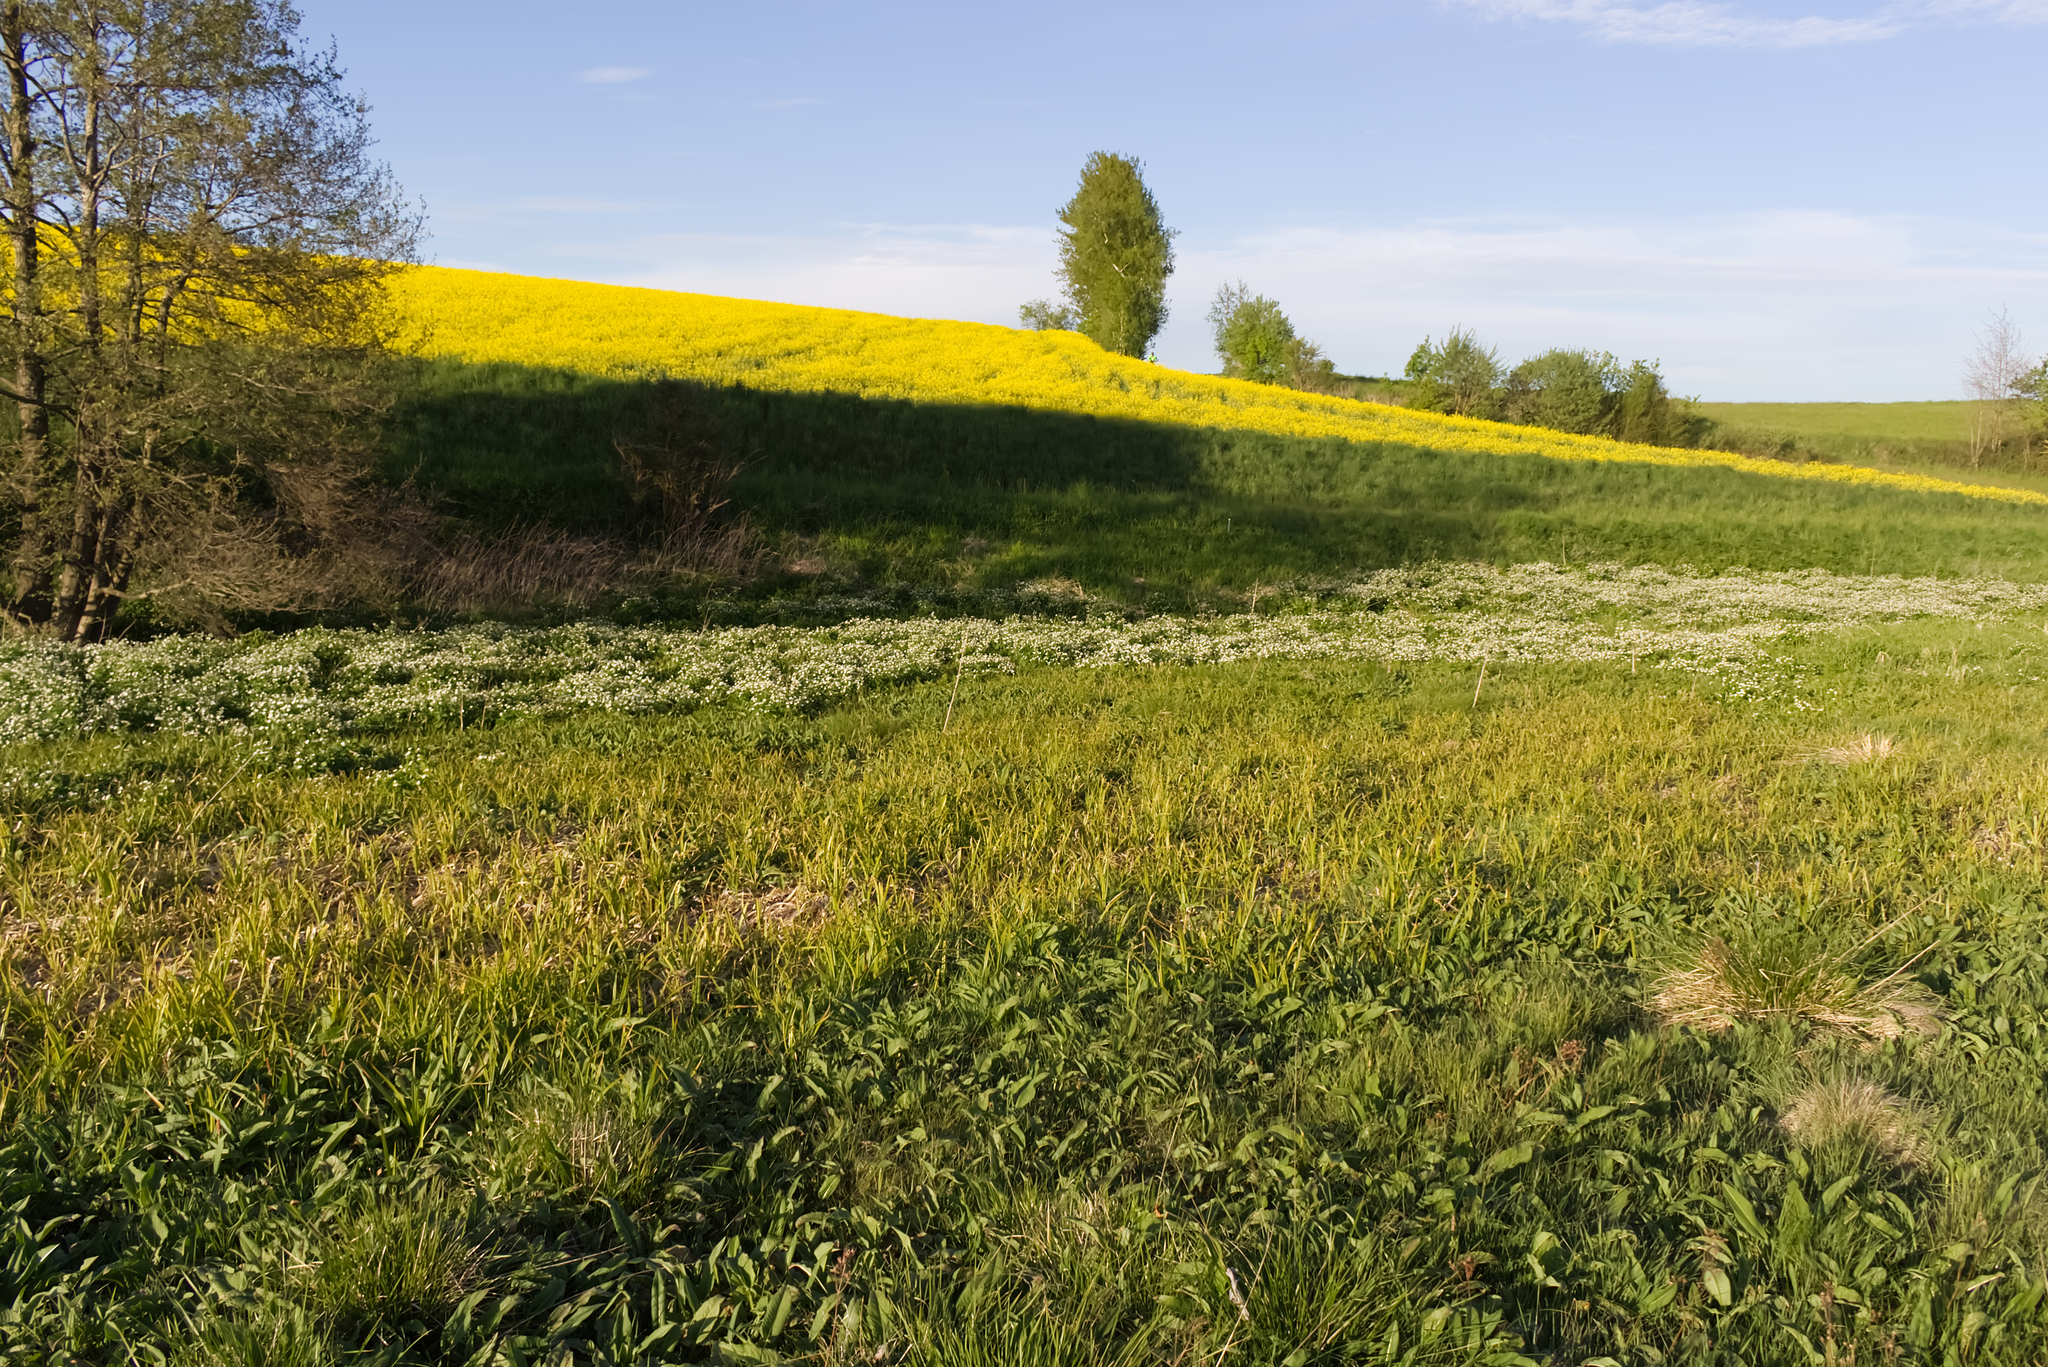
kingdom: Plantae
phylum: Tracheophyta
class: Magnoliopsida
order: Ranunculales
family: Ranunculaceae
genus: Ranunculus
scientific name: Ranunculus aconitifolius
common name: Aconite-leaved buttercup
